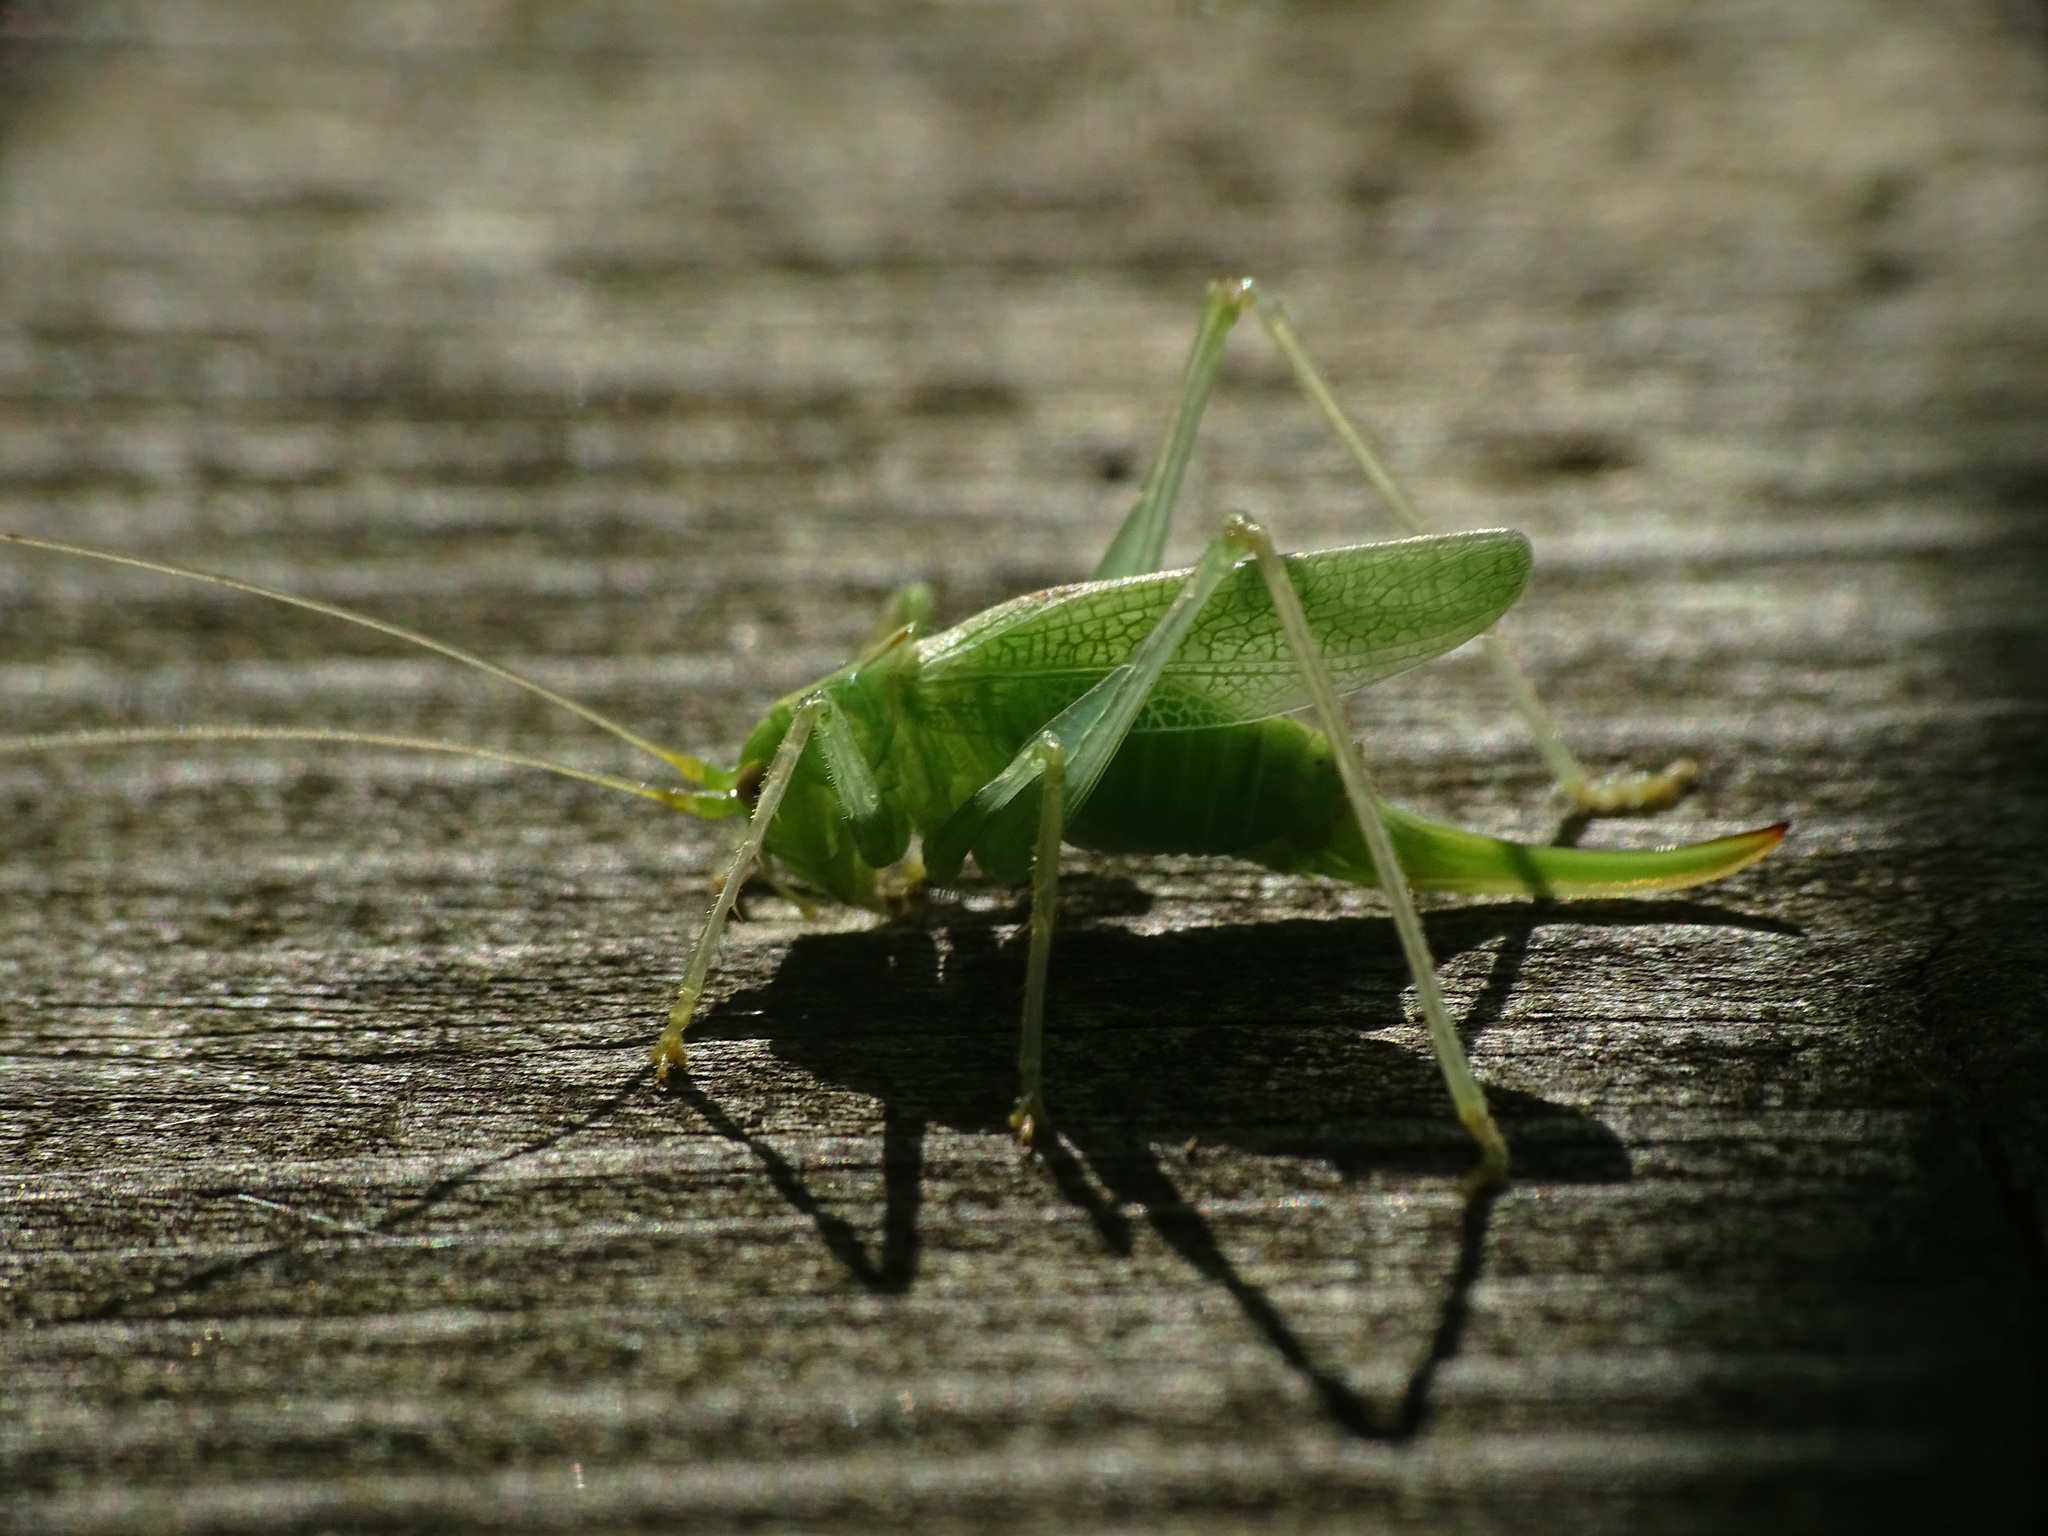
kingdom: Animalia
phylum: Arthropoda
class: Insecta
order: Orthoptera
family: Tettigoniidae
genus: Meconema
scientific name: Meconema thalassinum
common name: Oak bush-cricket
